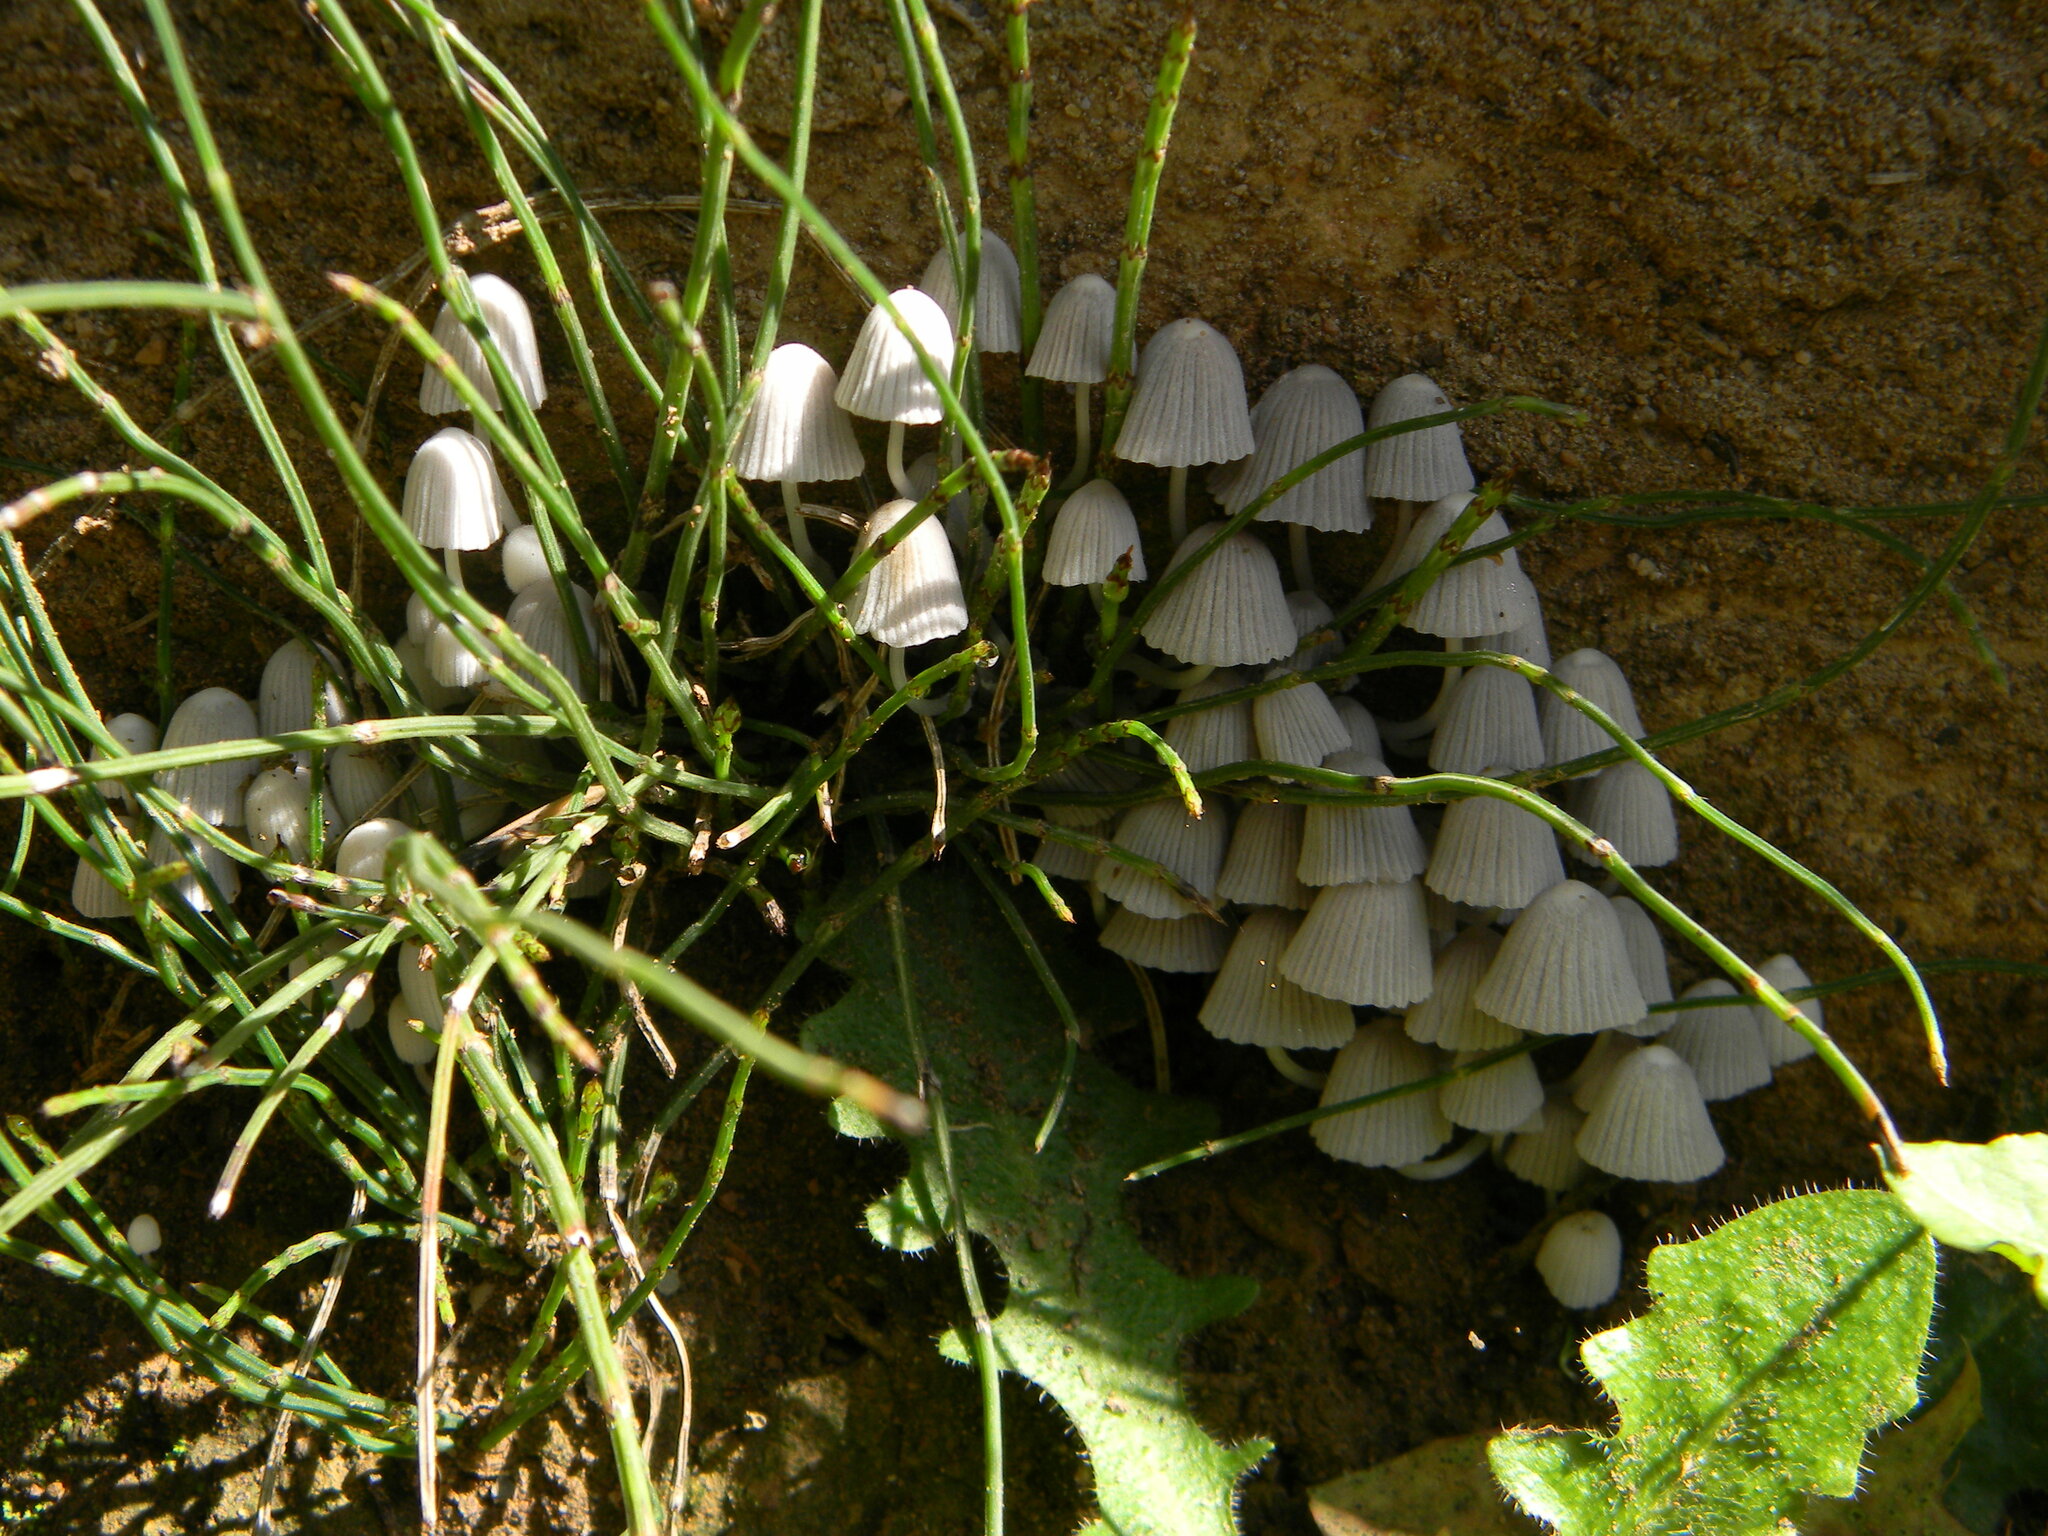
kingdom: Fungi
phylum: Basidiomycota
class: Agaricomycetes
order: Agaricales
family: Psathyrellaceae
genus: Coprinellus
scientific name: Coprinellus disseminatus
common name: Fairies' bonnets
